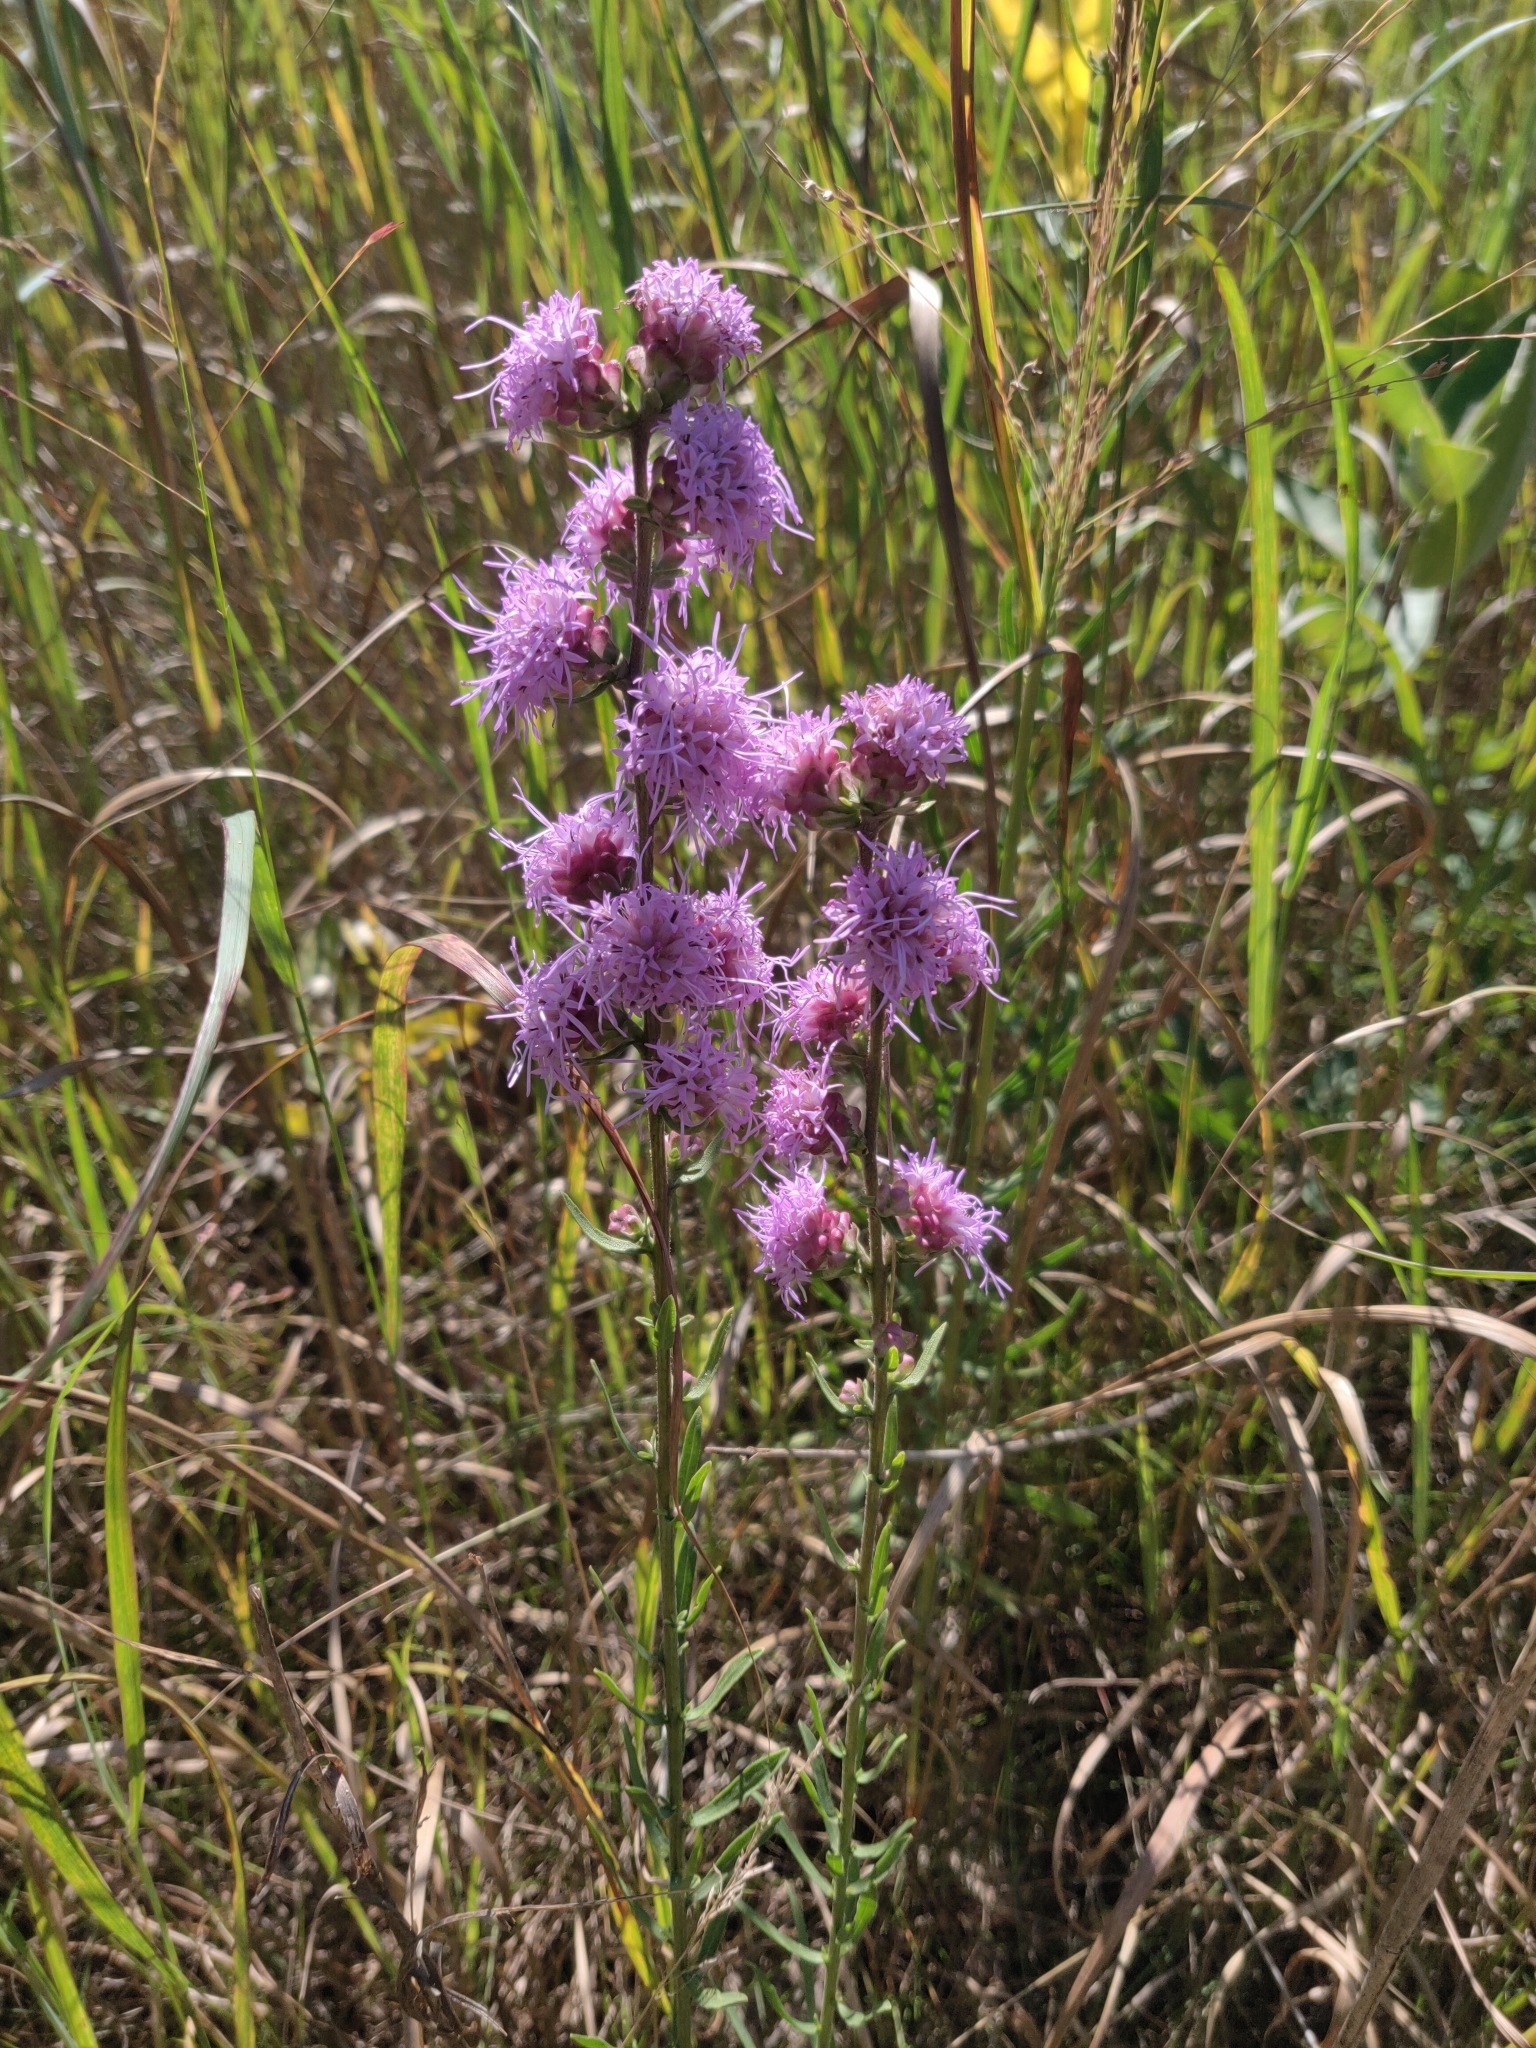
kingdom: Plantae
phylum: Tracheophyta
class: Magnoliopsida
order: Asterales
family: Asteraceae
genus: Liatris
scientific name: Liatris aspera
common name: Lacerate blazing-star
